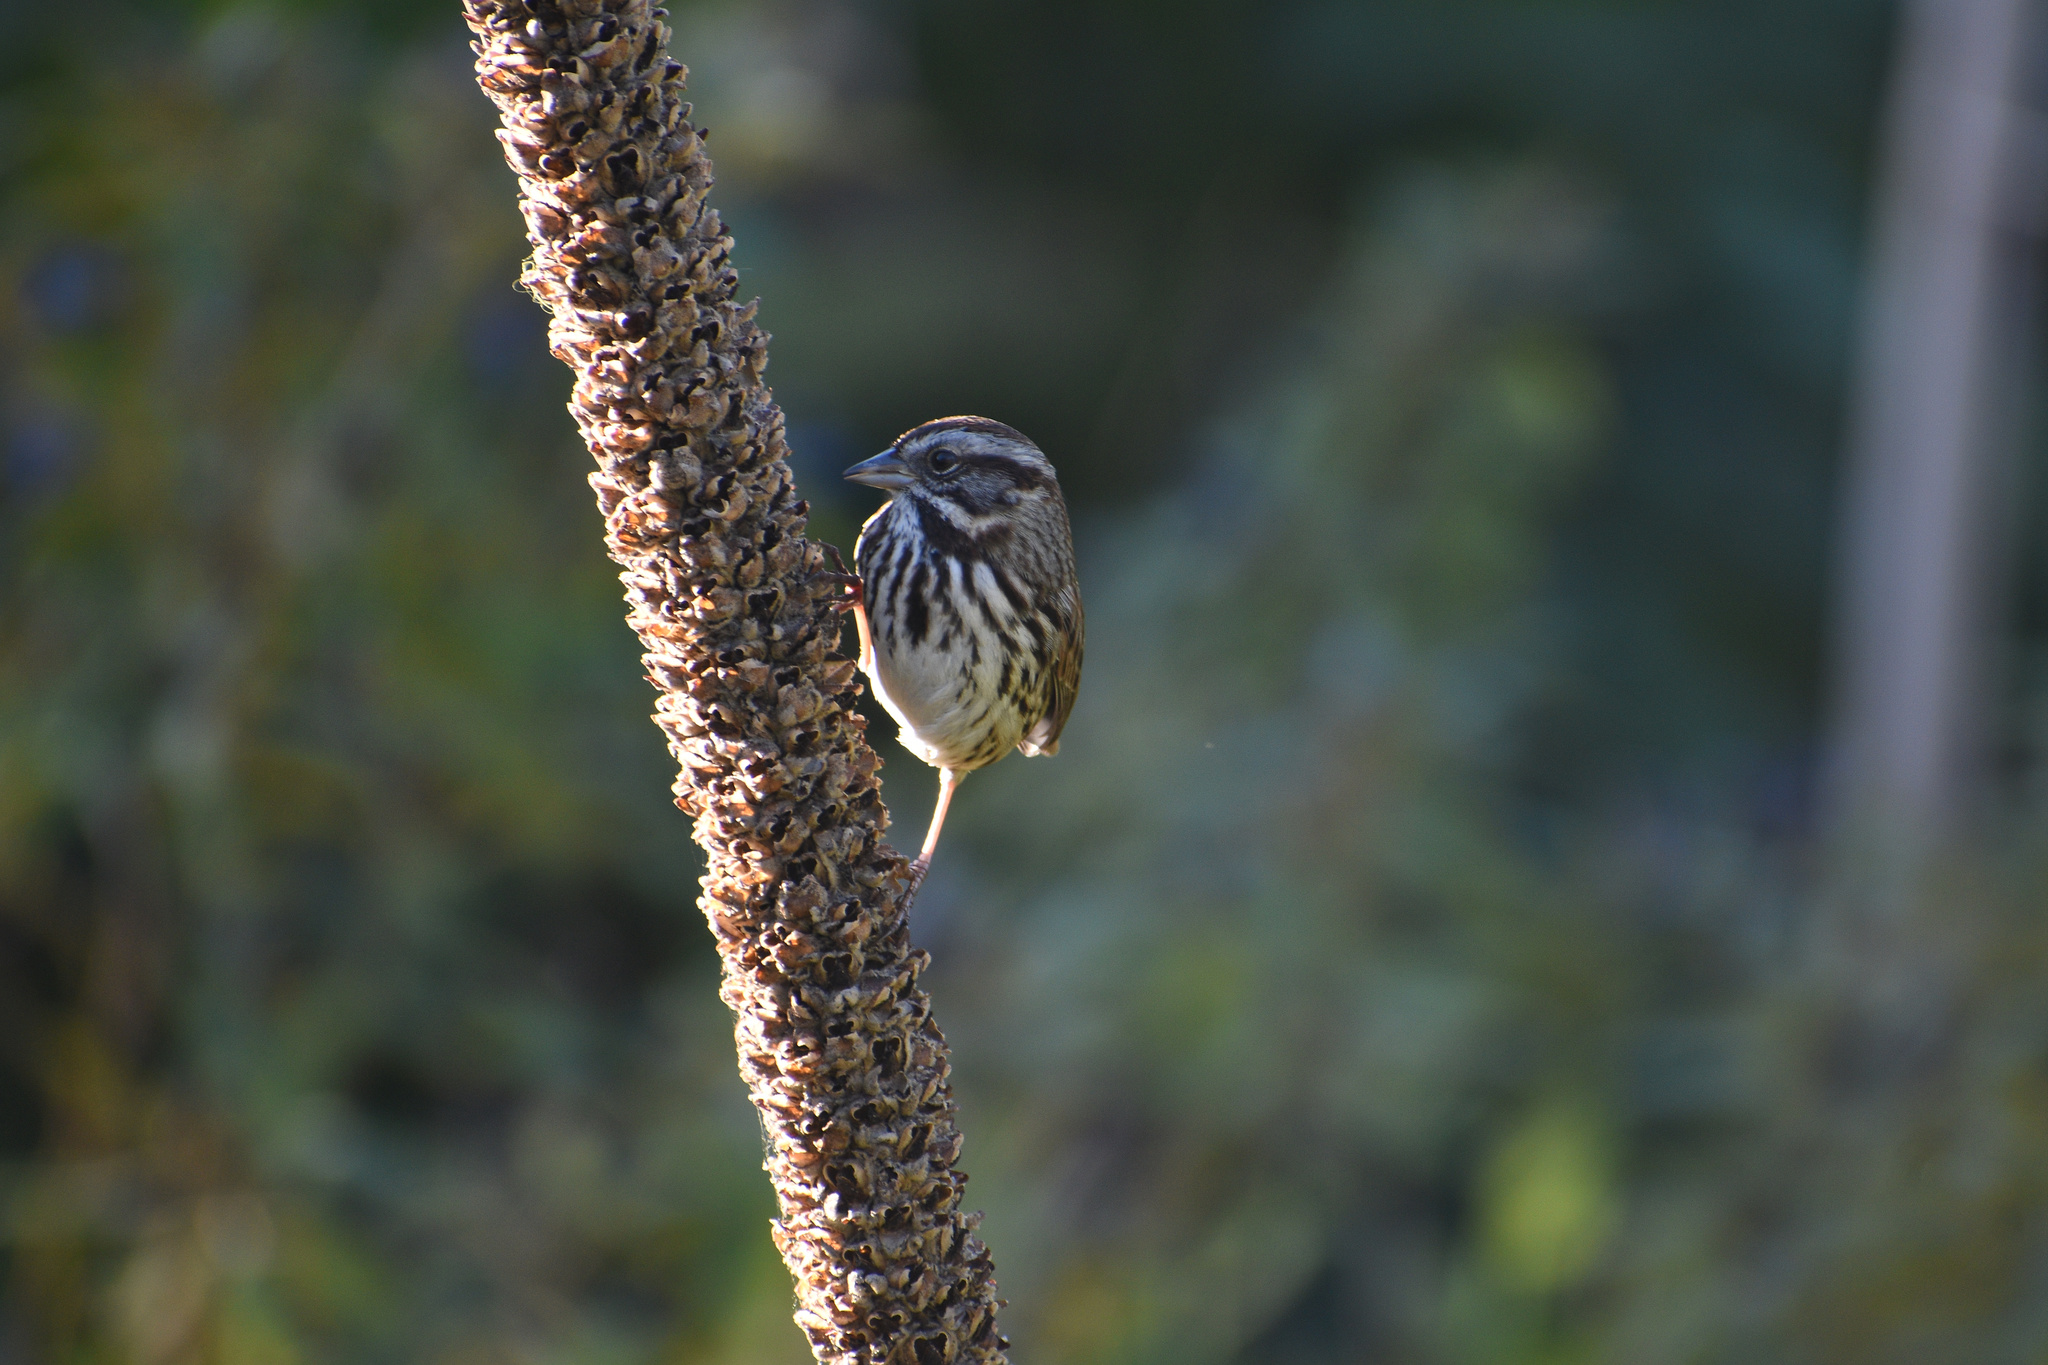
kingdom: Animalia
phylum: Chordata
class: Aves
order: Passeriformes
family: Passerellidae
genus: Melospiza
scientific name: Melospiza melodia
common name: Song sparrow
